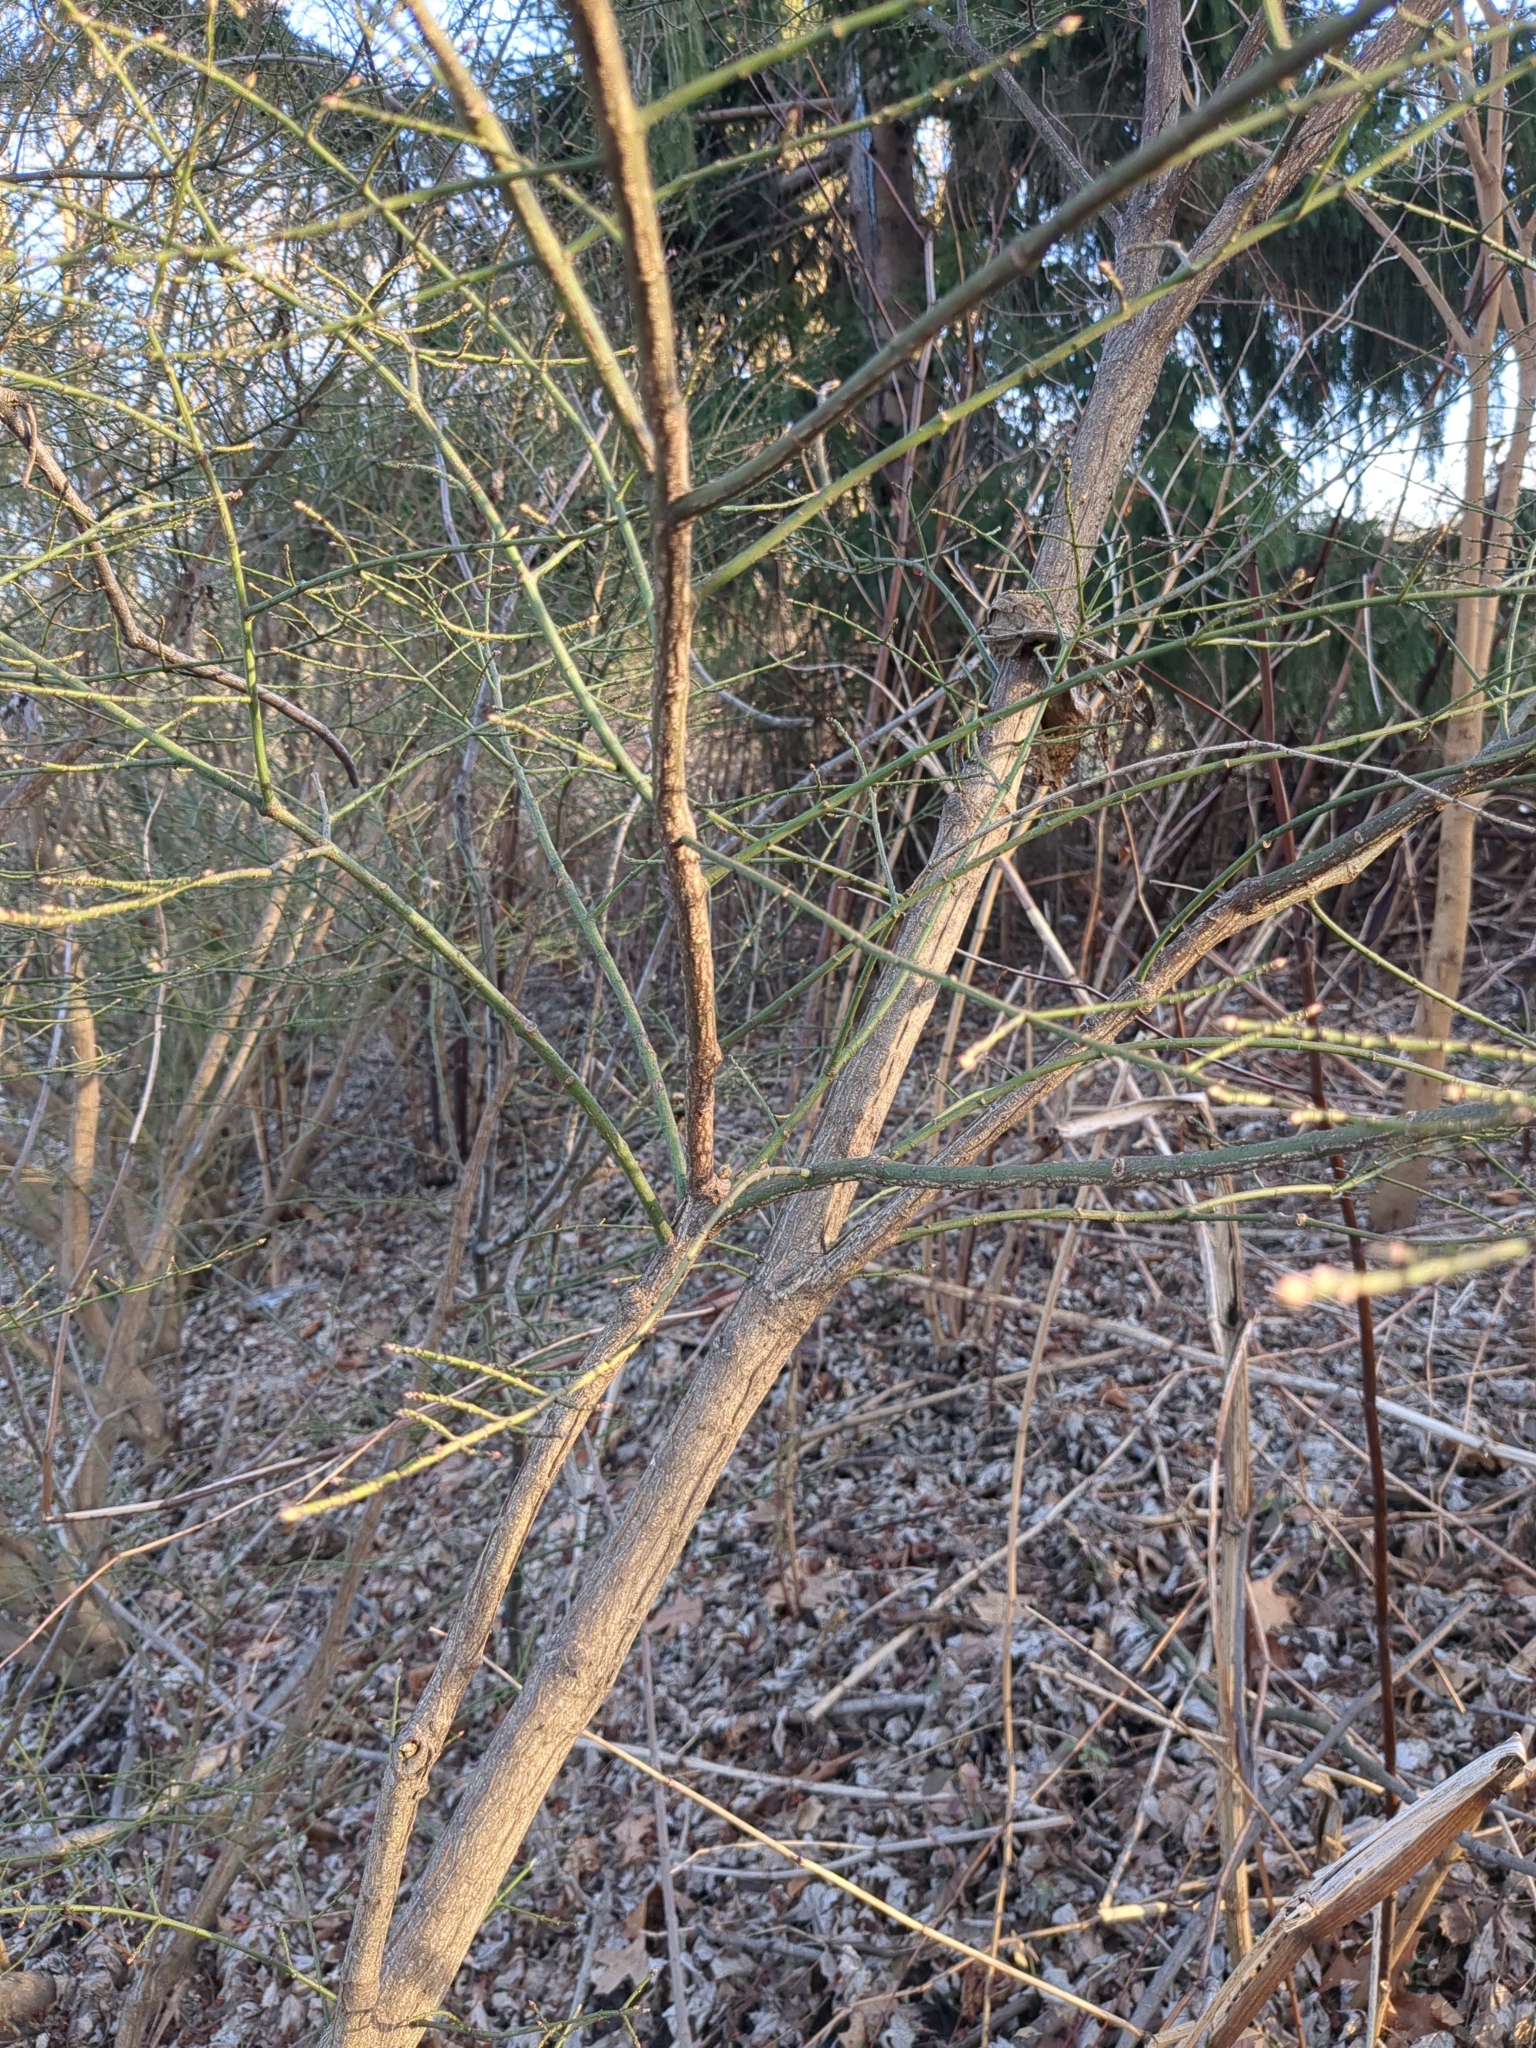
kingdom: Plantae
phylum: Tracheophyta
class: Magnoliopsida
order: Celastrales
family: Celastraceae
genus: Euonymus
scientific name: Euonymus alatus
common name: Winged euonymus
